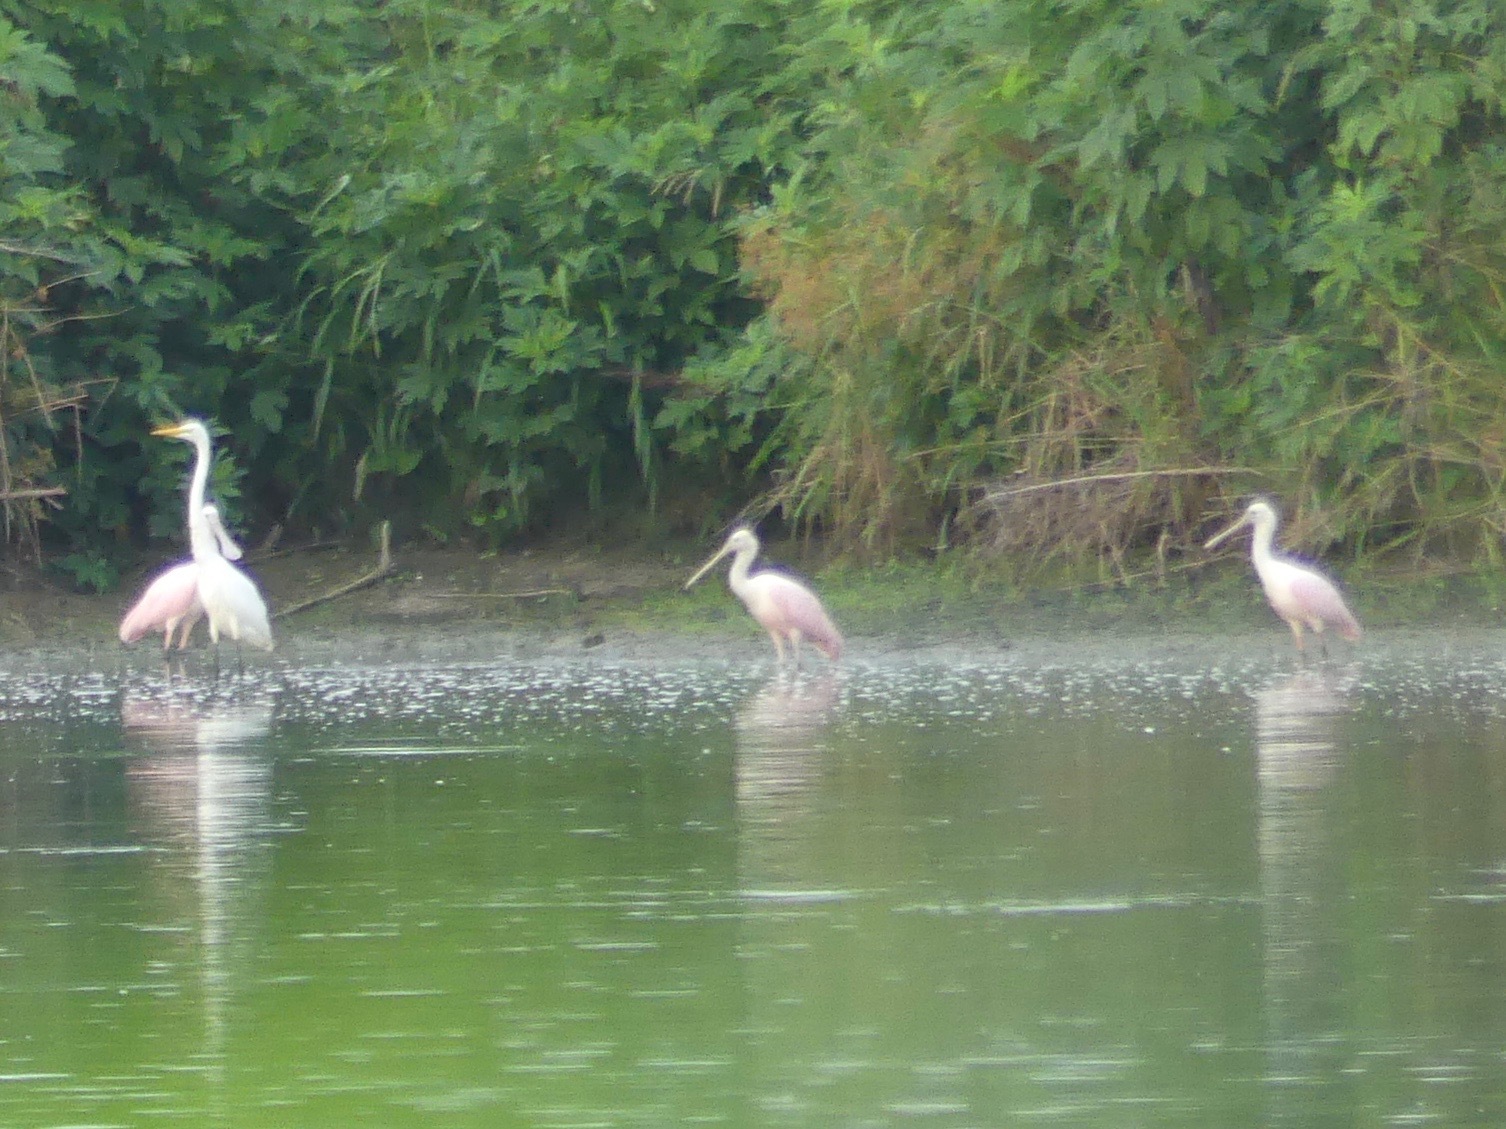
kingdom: Animalia
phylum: Chordata
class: Aves
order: Pelecaniformes
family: Threskiornithidae
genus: Platalea
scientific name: Platalea ajaja
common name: Roseate spoonbill
